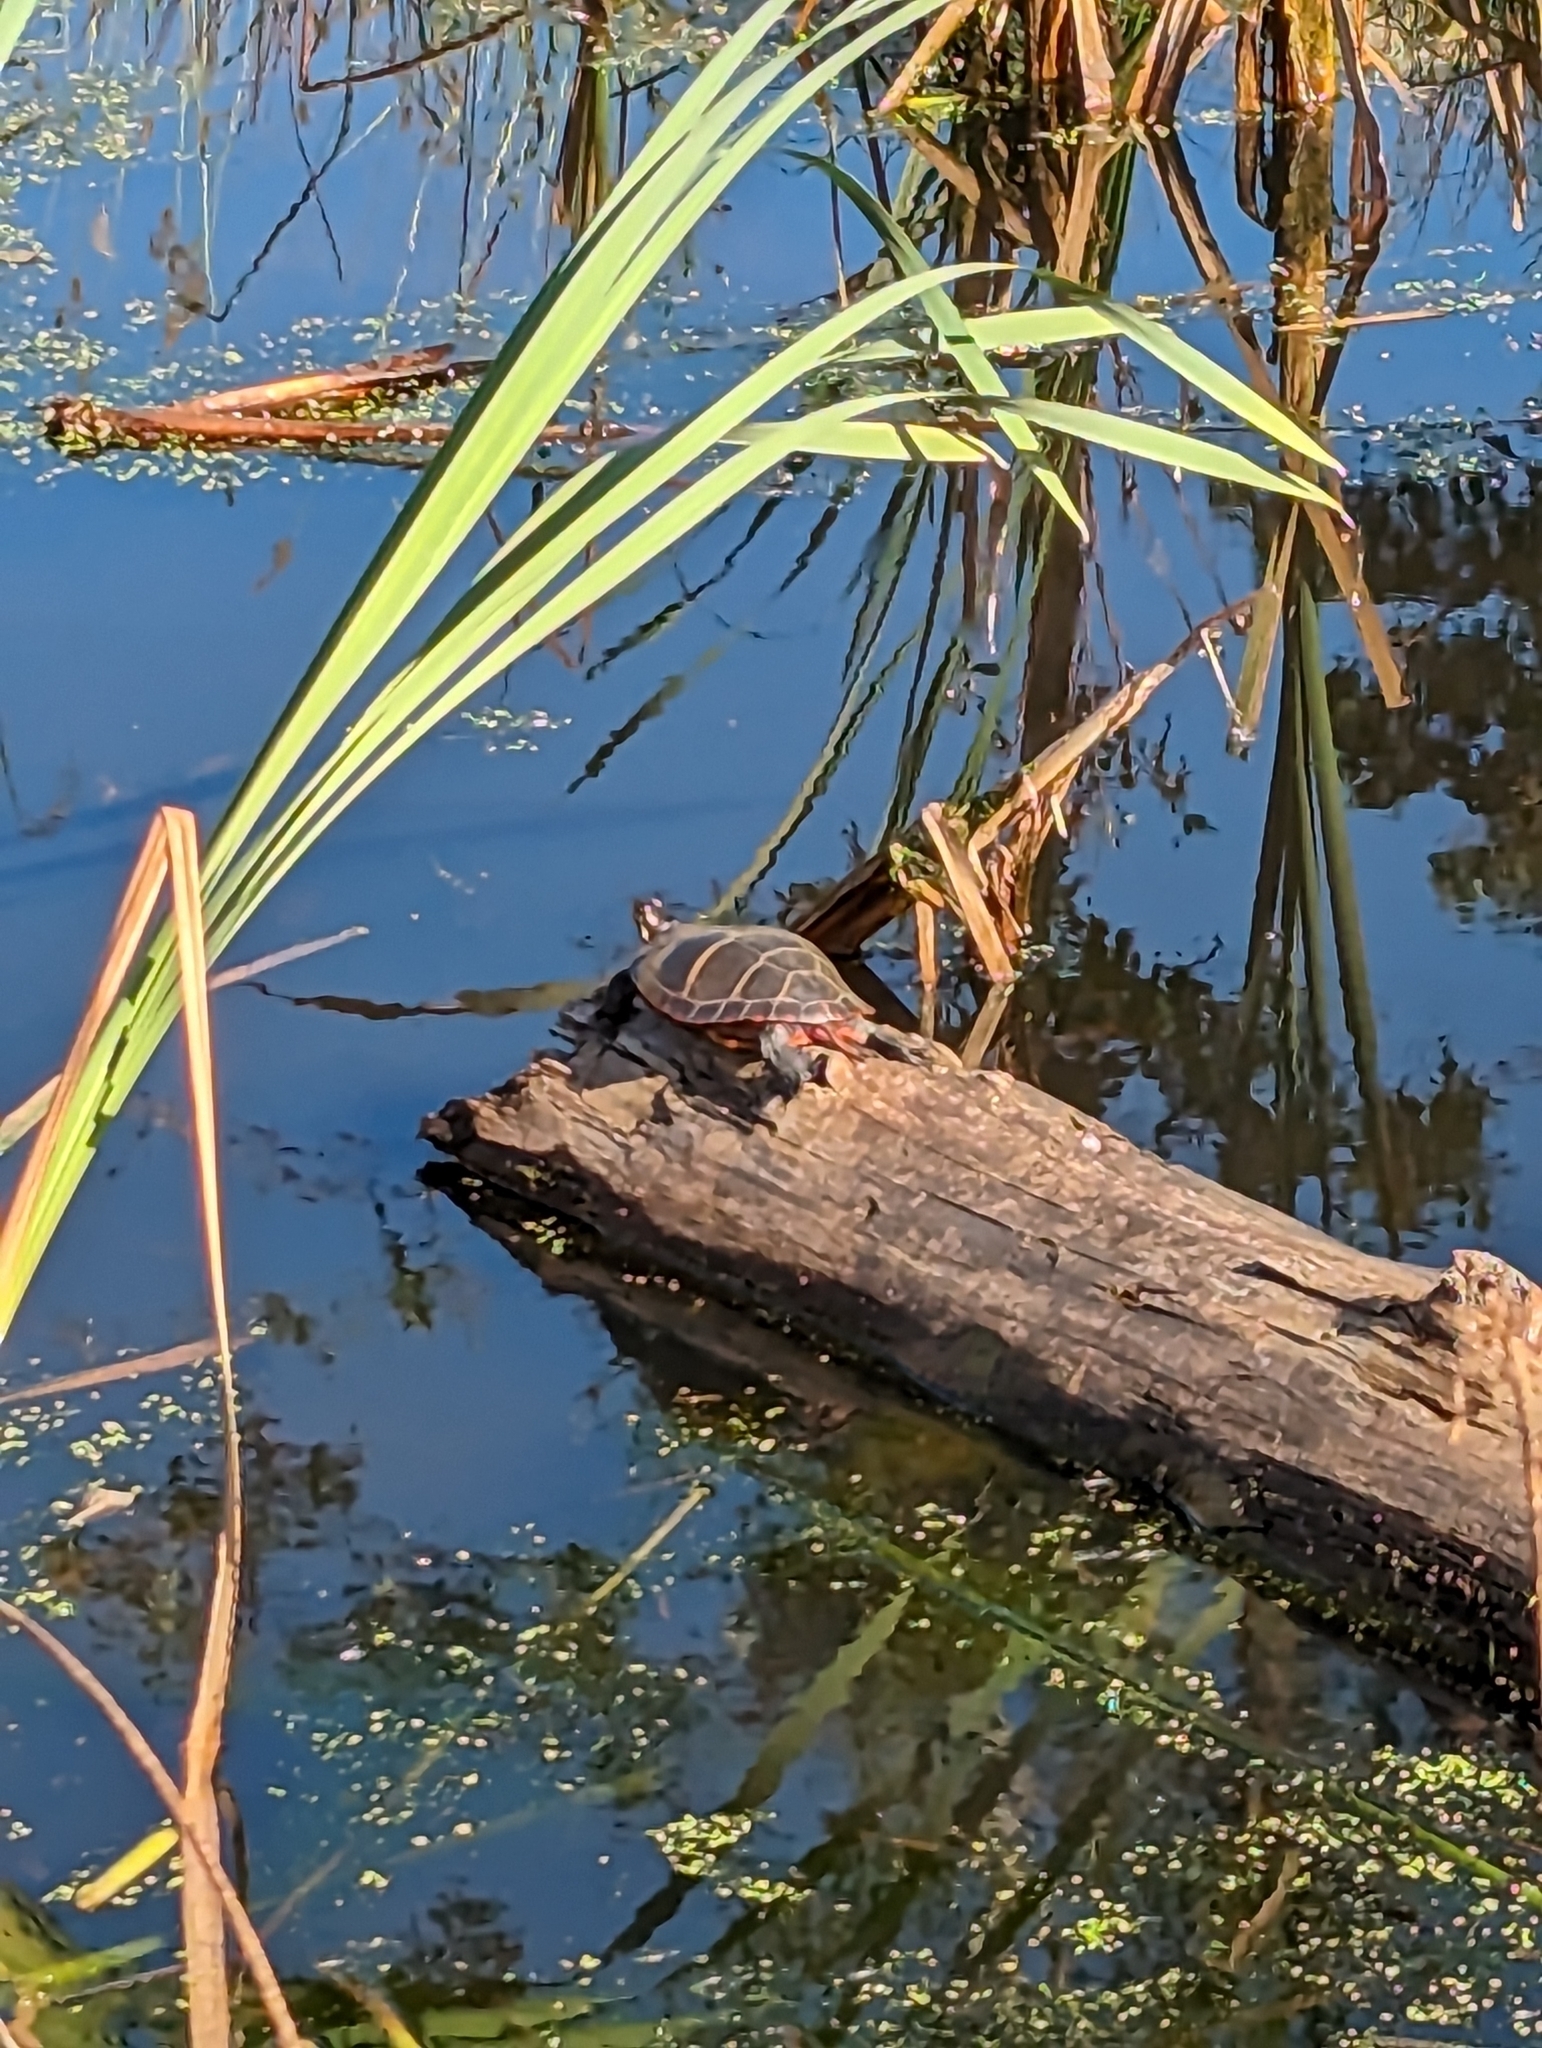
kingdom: Animalia
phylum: Chordata
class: Testudines
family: Emydidae
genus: Chrysemys
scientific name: Chrysemys picta
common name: Painted turtle
